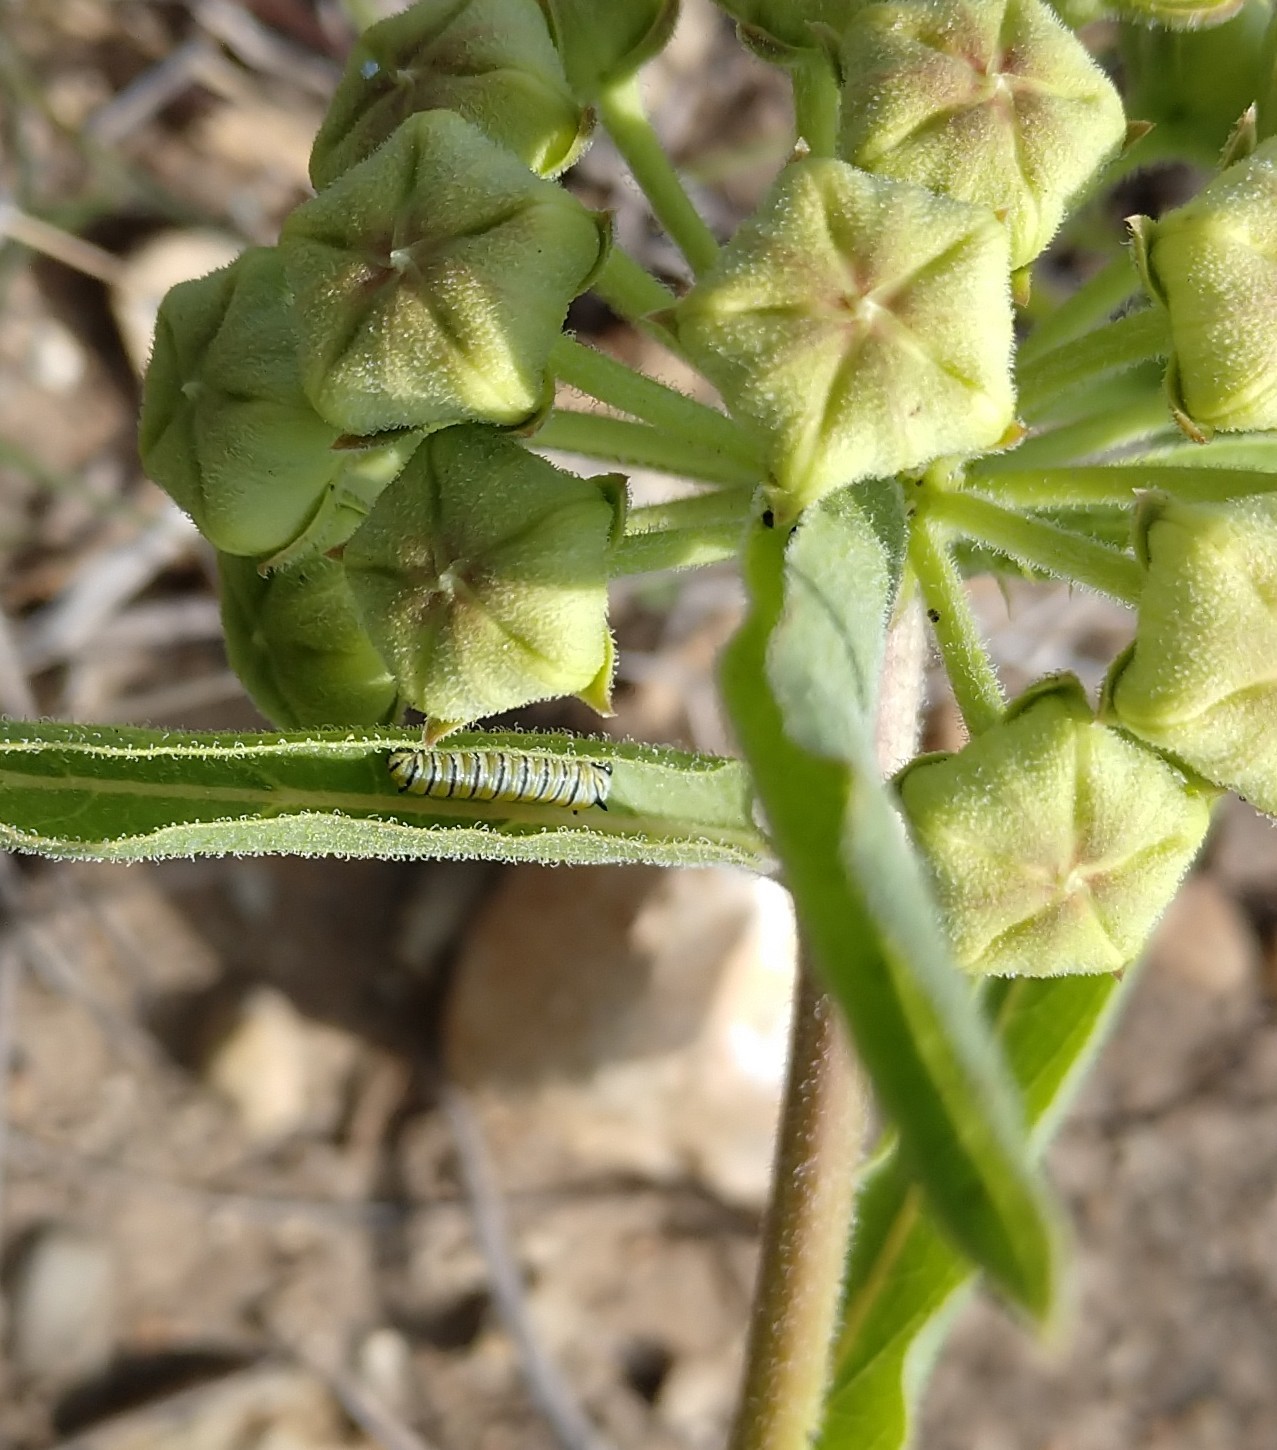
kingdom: Animalia
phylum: Arthropoda
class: Insecta
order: Lepidoptera
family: Nymphalidae
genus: Danaus
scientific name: Danaus plexippus
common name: Monarch
